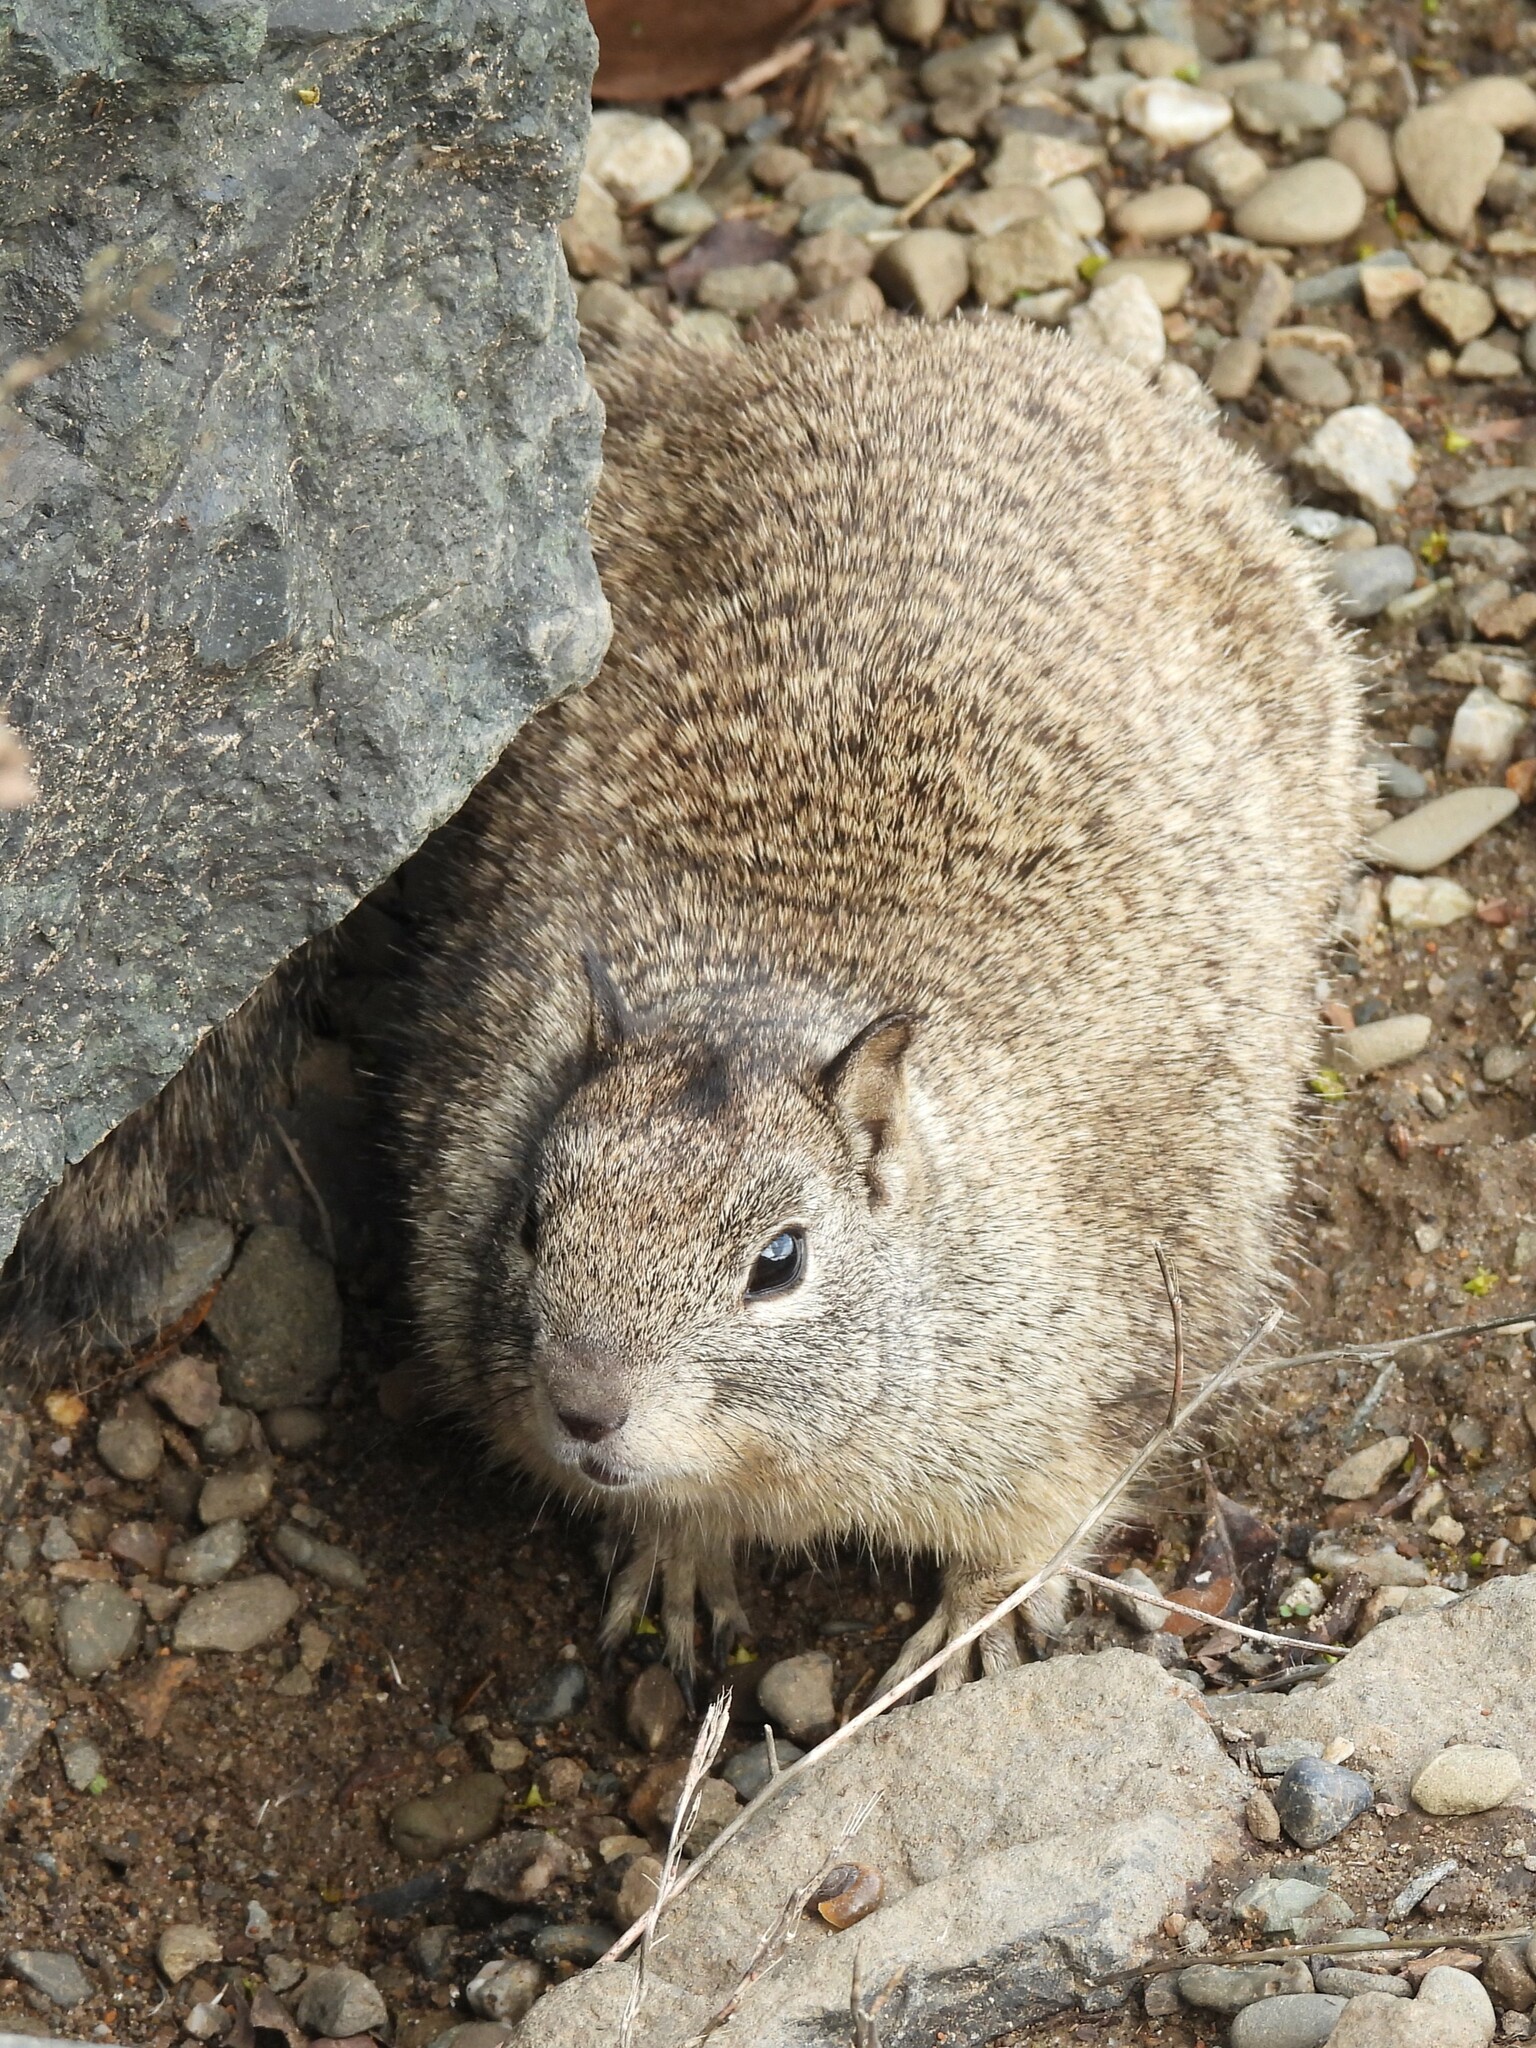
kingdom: Animalia
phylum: Chordata
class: Mammalia
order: Rodentia
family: Sciuridae
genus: Otospermophilus
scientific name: Otospermophilus beecheyi
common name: California ground squirrel
